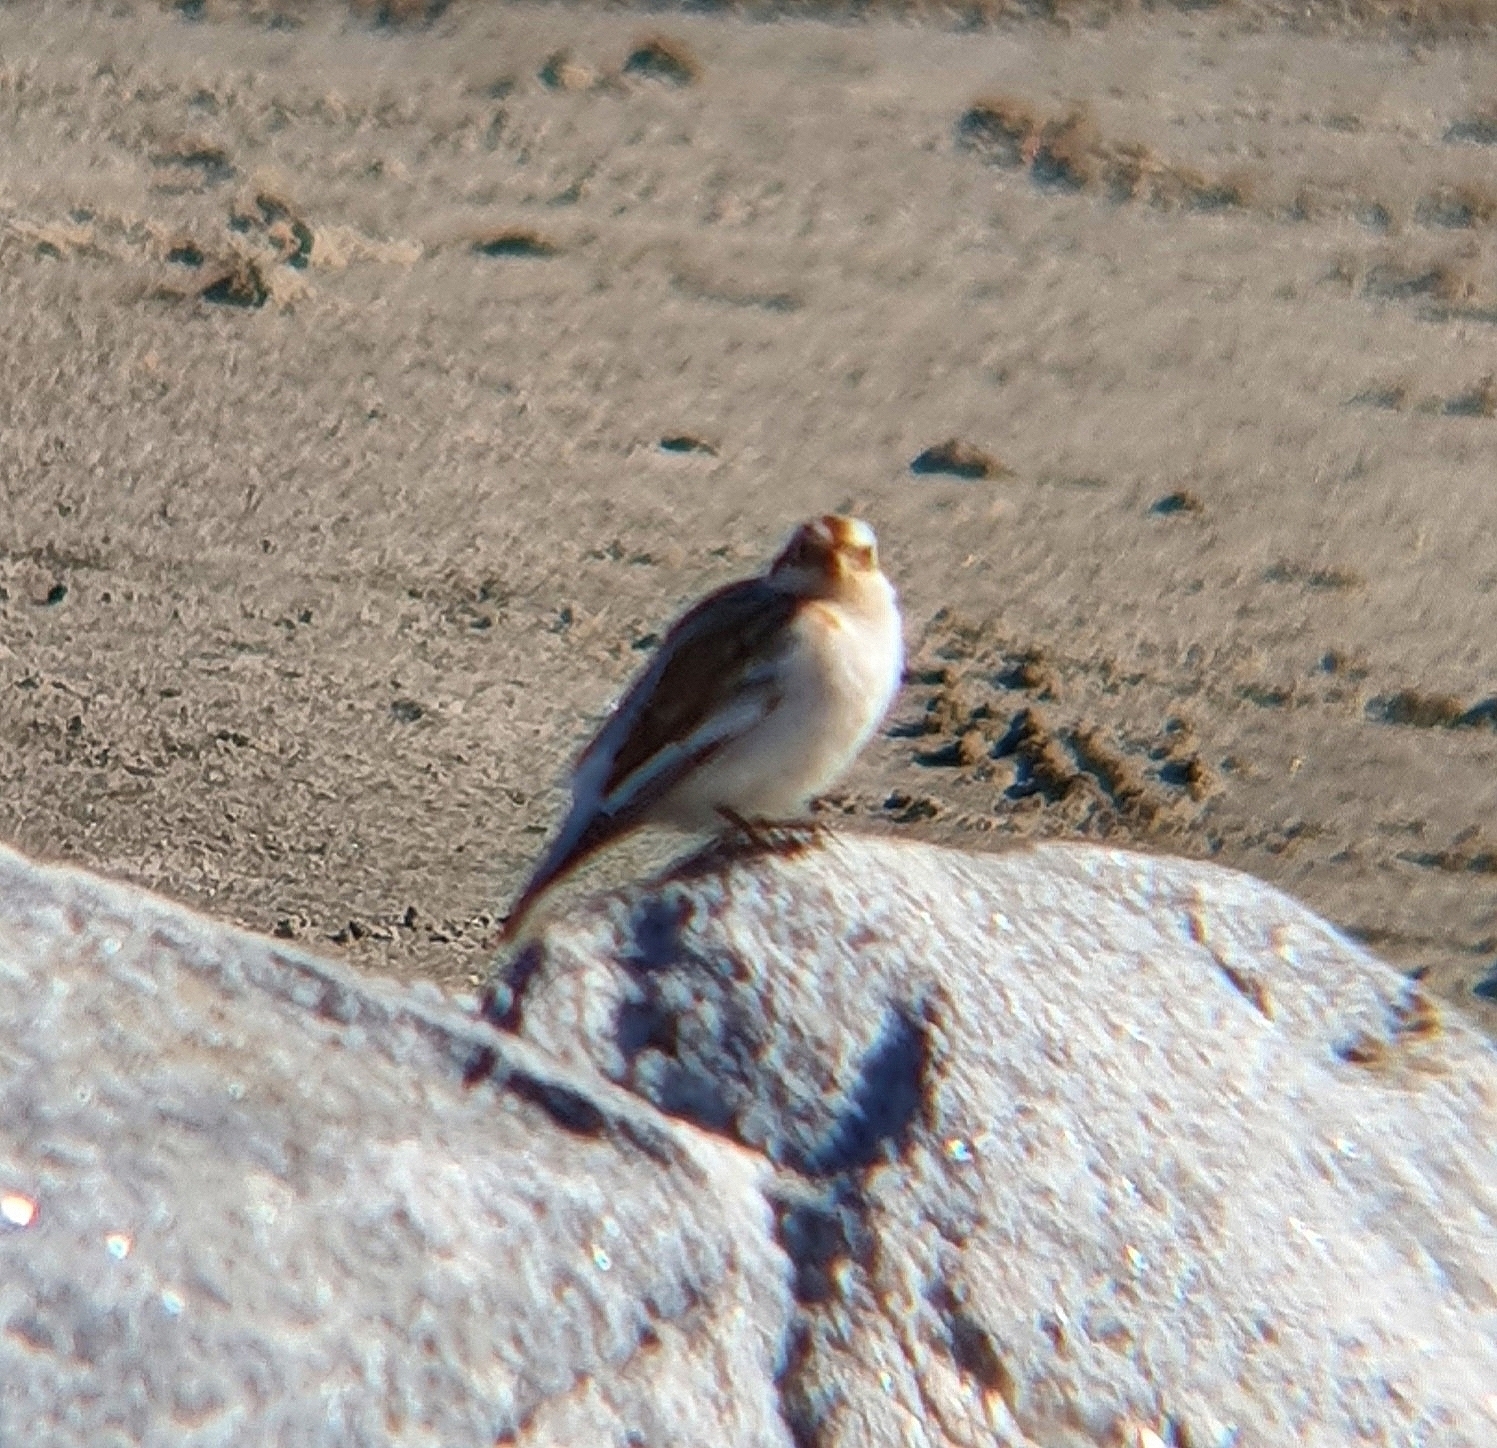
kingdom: Animalia
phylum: Chordata
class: Aves
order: Passeriformes
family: Calcariidae
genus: Plectrophenax
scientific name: Plectrophenax nivalis
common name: Snow bunting
